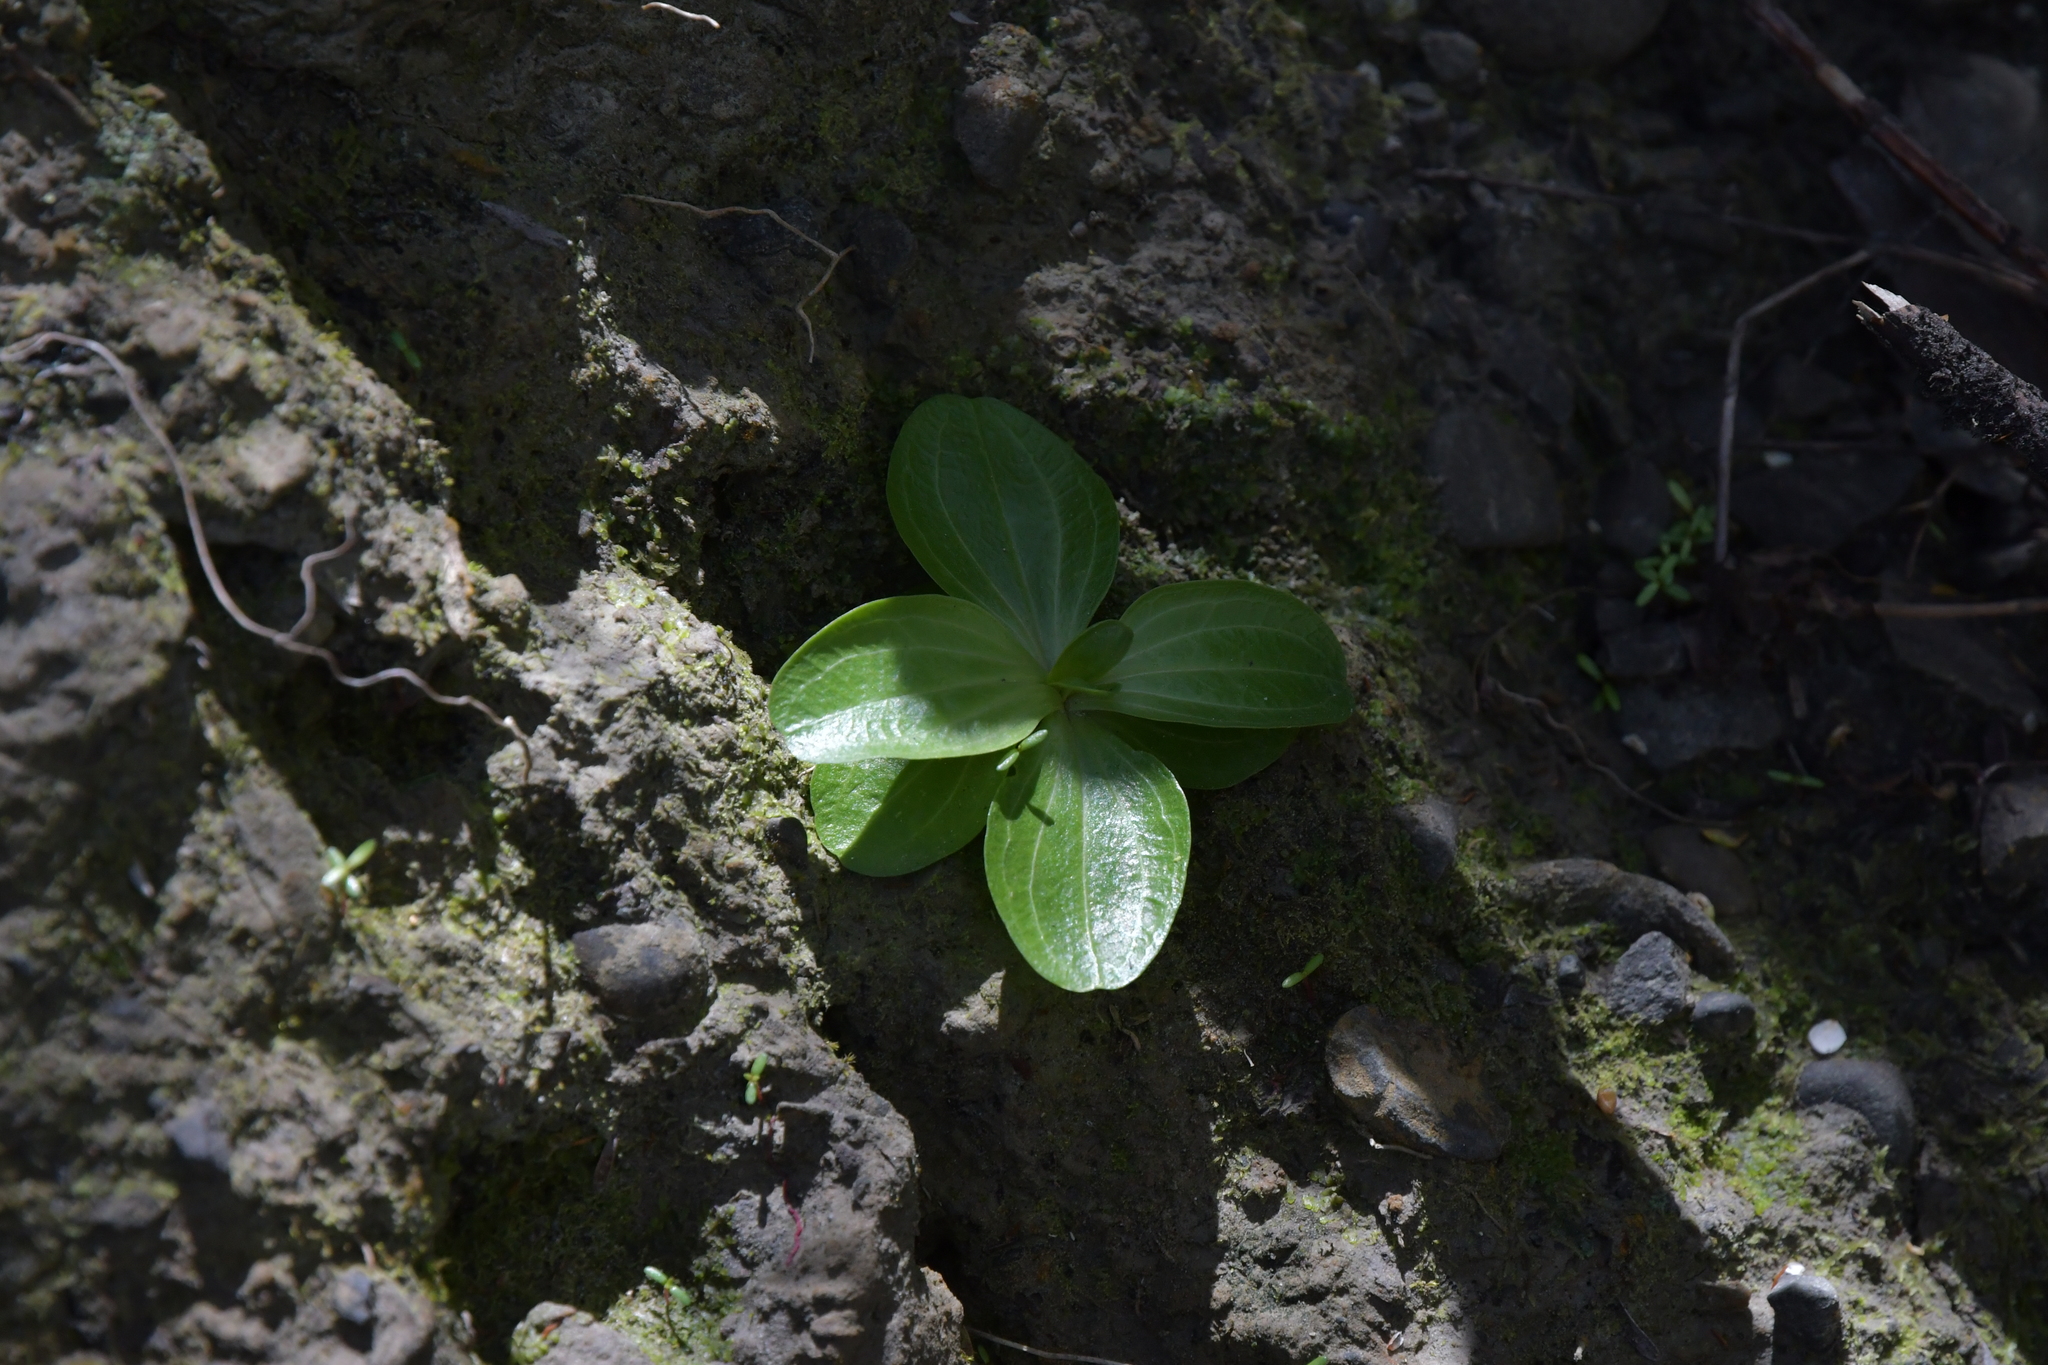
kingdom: Plantae
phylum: Tracheophyta
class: Magnoliopsida
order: Gentianales
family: Gentianaceae
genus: Centaurium
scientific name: Centaurium erythraea
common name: Common centaury
